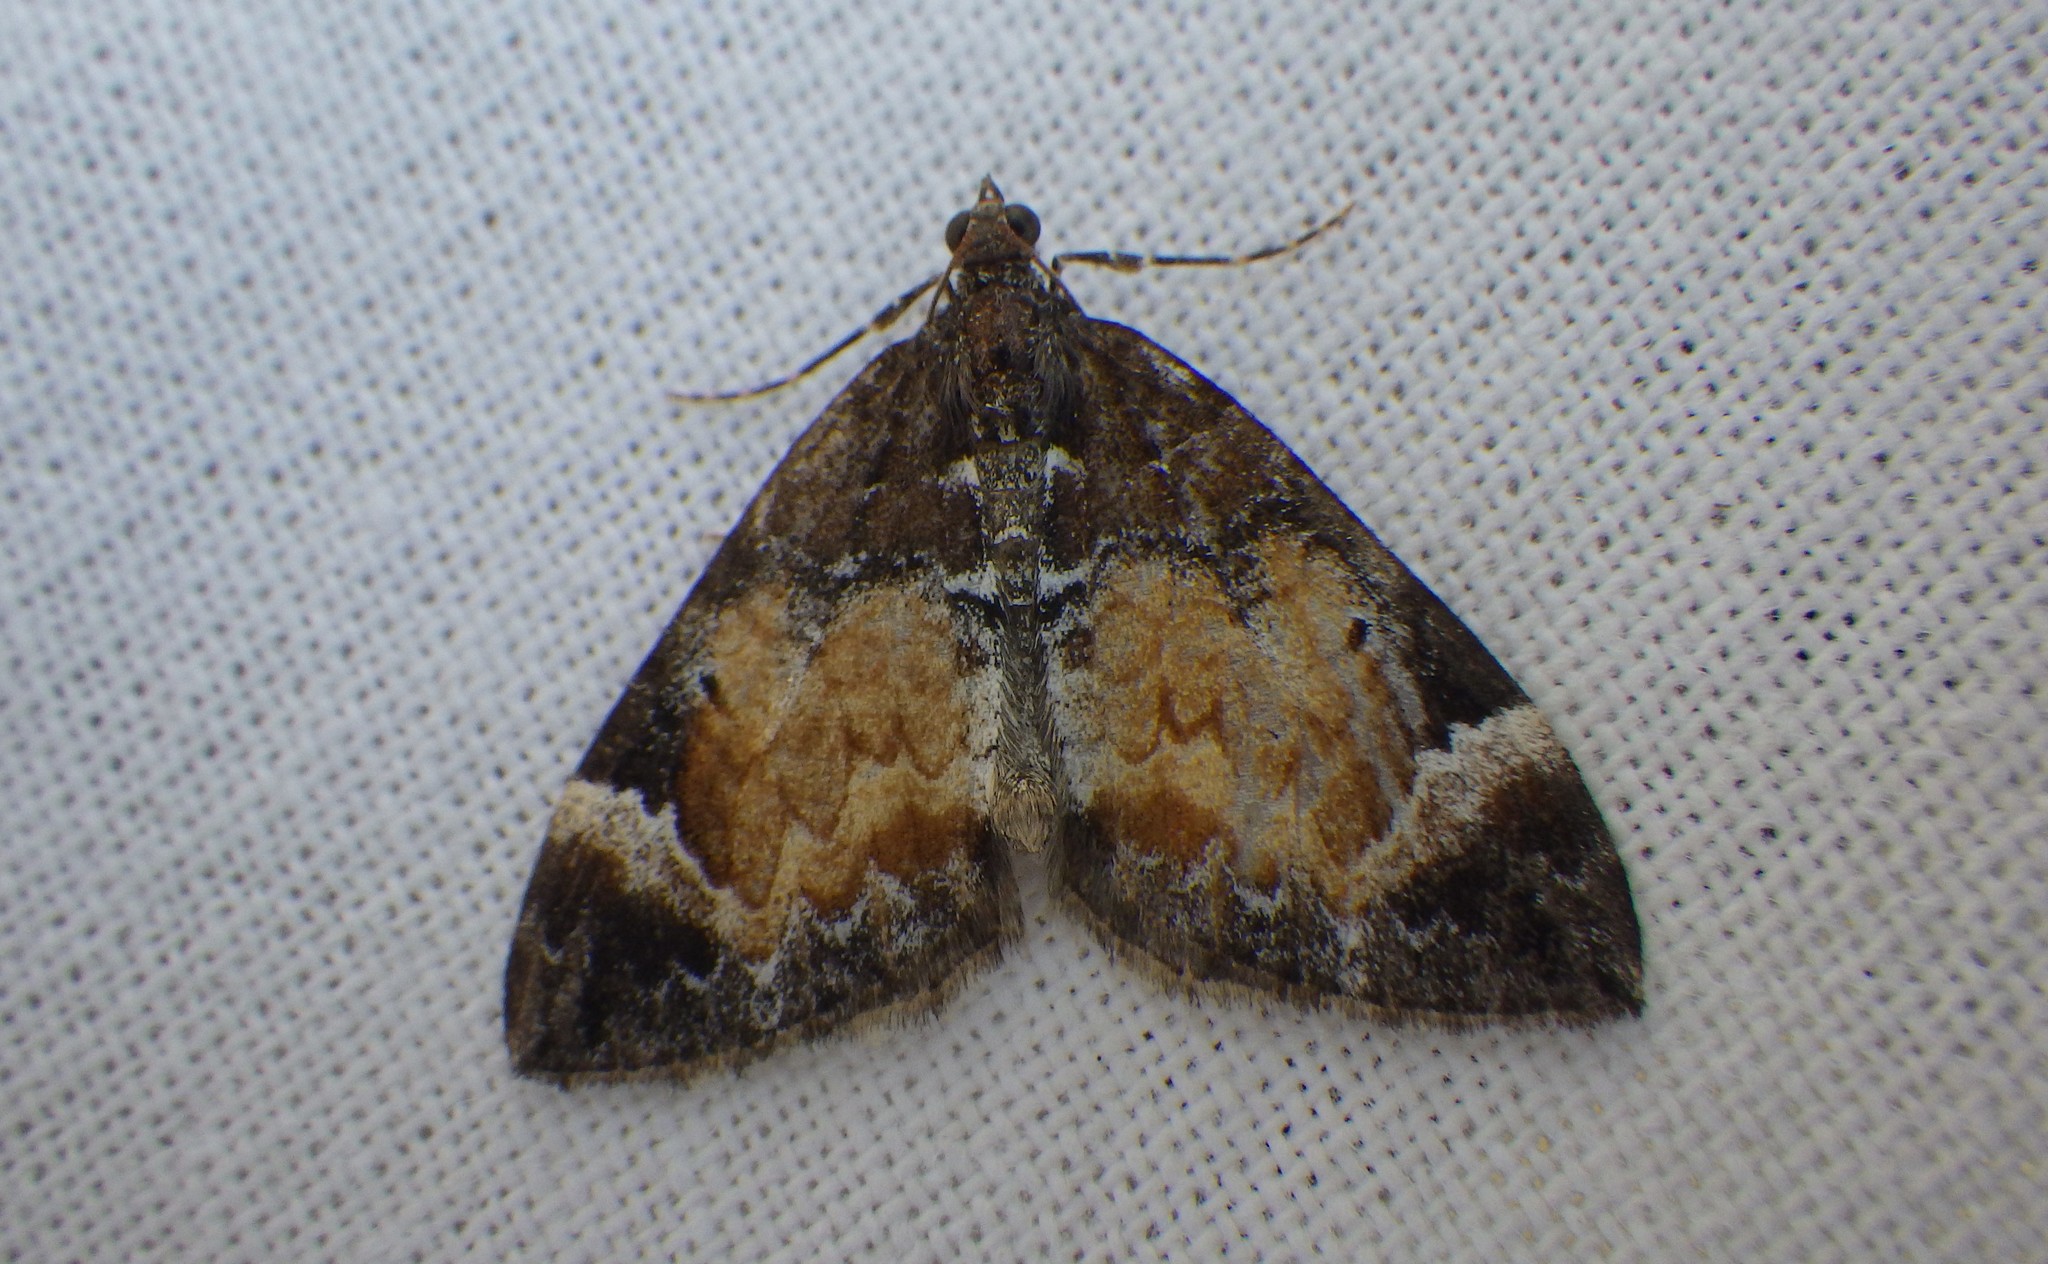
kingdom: Animalia
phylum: Arthropoda
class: Insecta
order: Lepidoptera
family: Geometridae
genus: Dysstroma
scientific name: Dysstroma truncata
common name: Common marbled carpet
